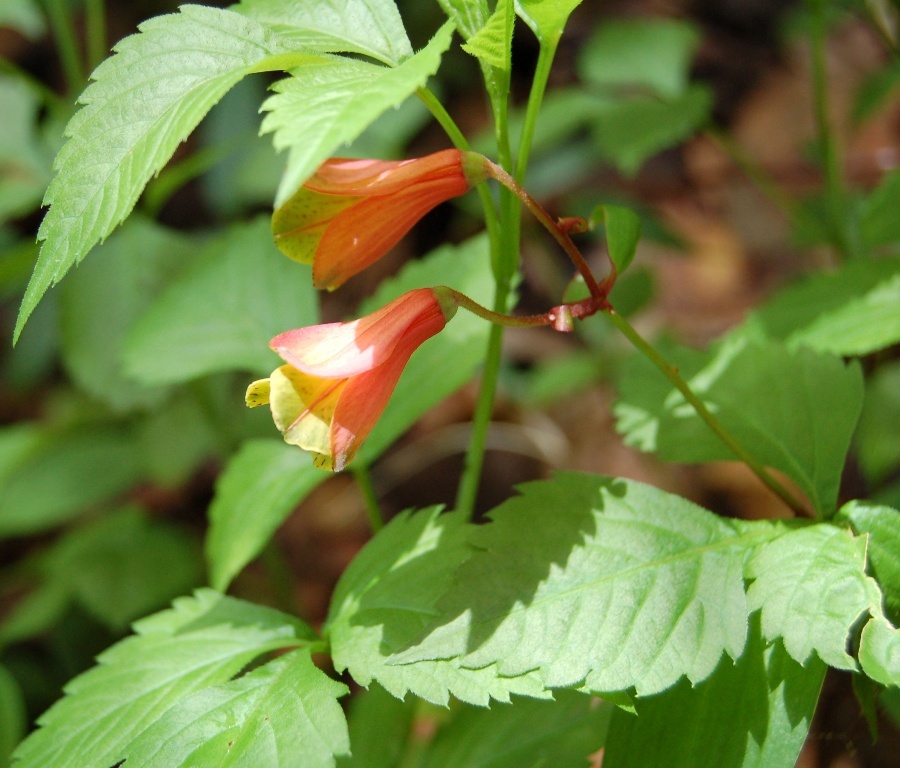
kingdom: Plantae
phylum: Tracheophyta
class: Liliopsida
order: Liliales
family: Alstroemeriaceae
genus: Bomarea
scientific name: Bomarea edulis
